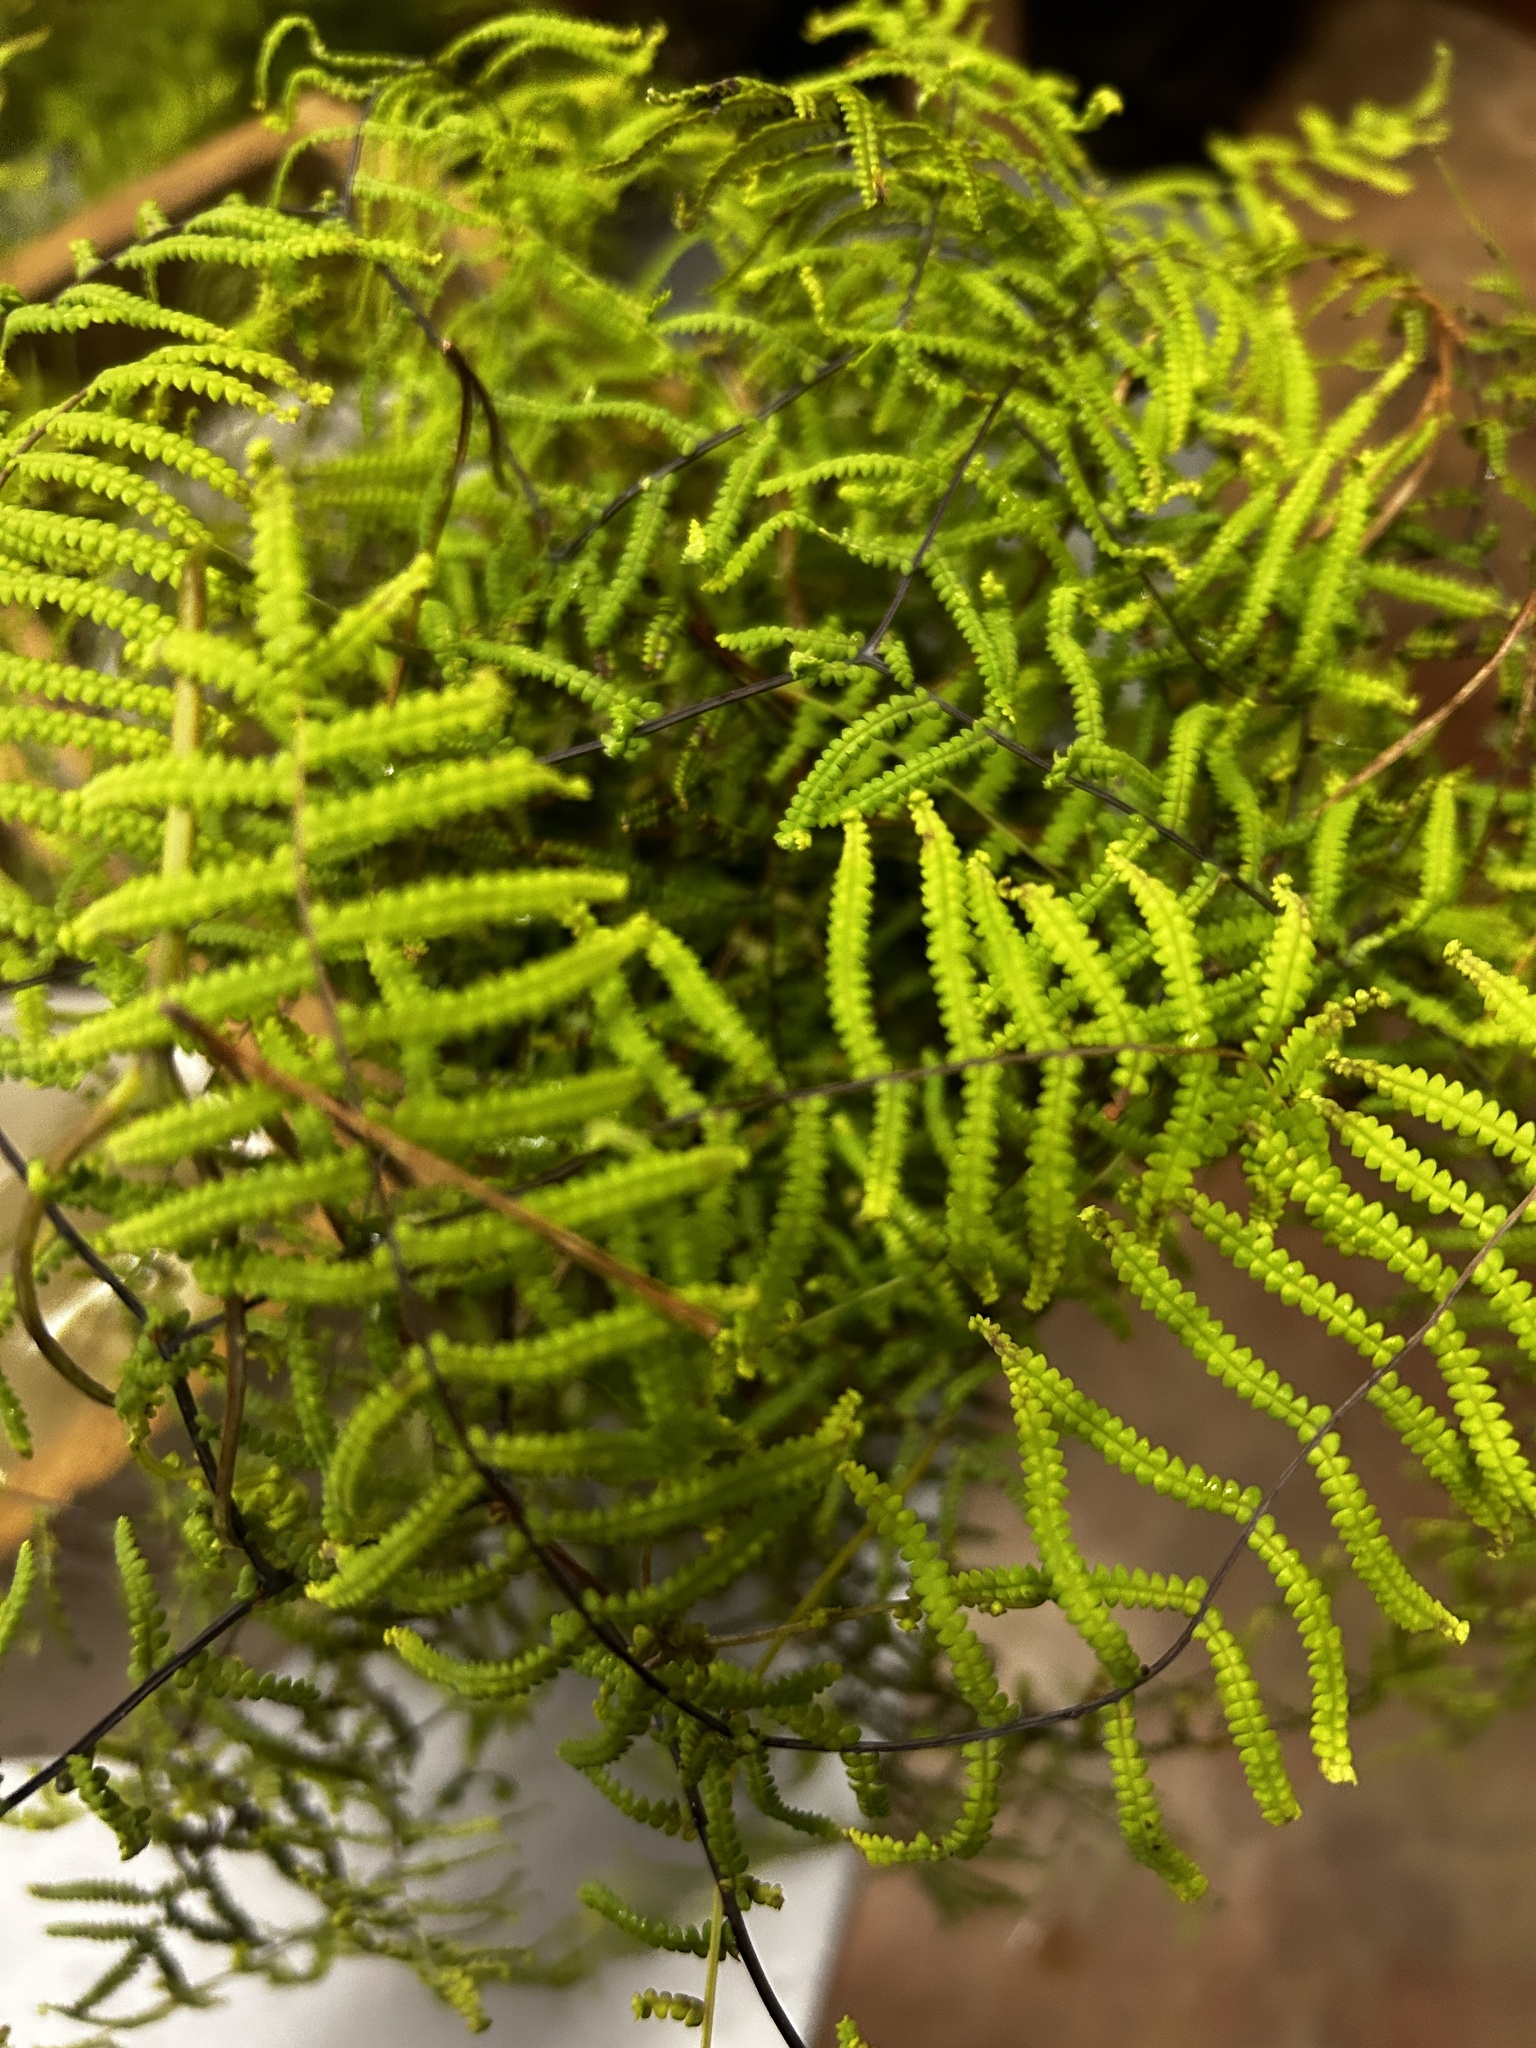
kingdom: Plantae
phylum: Tracheophyta
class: Polypodiopsida
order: Gleicheniales
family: Gleicheniaceae
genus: Gleichenia
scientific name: Gleichenia polypodioides
